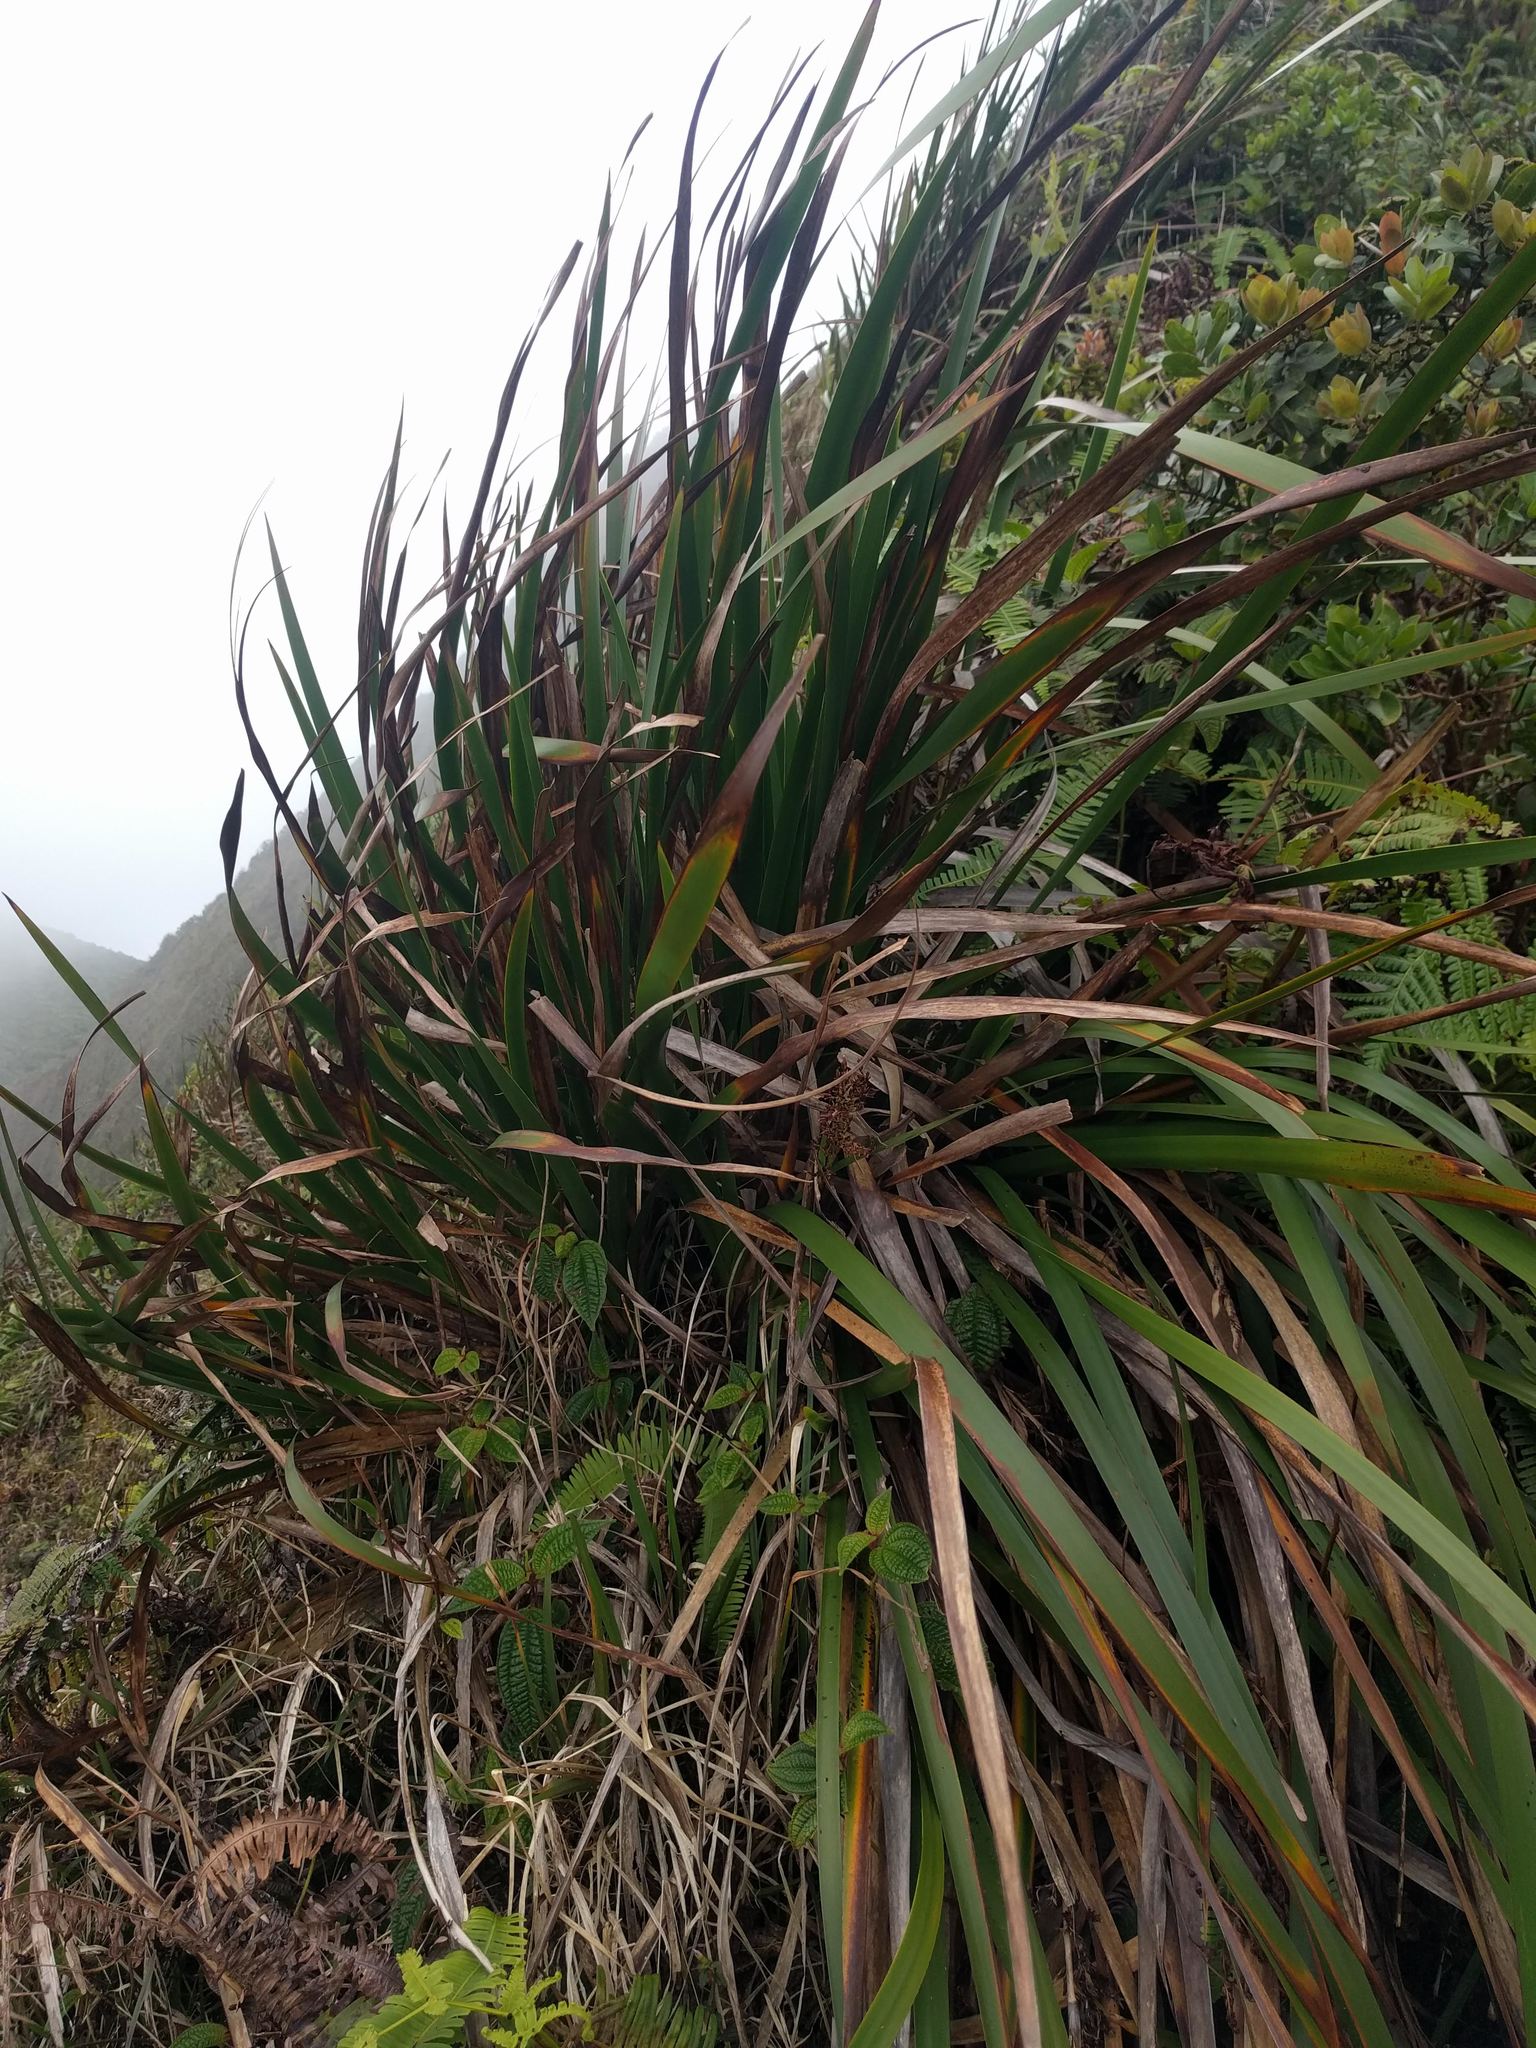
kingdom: Plantae
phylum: Tracheophyta
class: Liliopsida
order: Poales
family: Cyperaceae
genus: Machaerina
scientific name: Machaerina angustifolia
